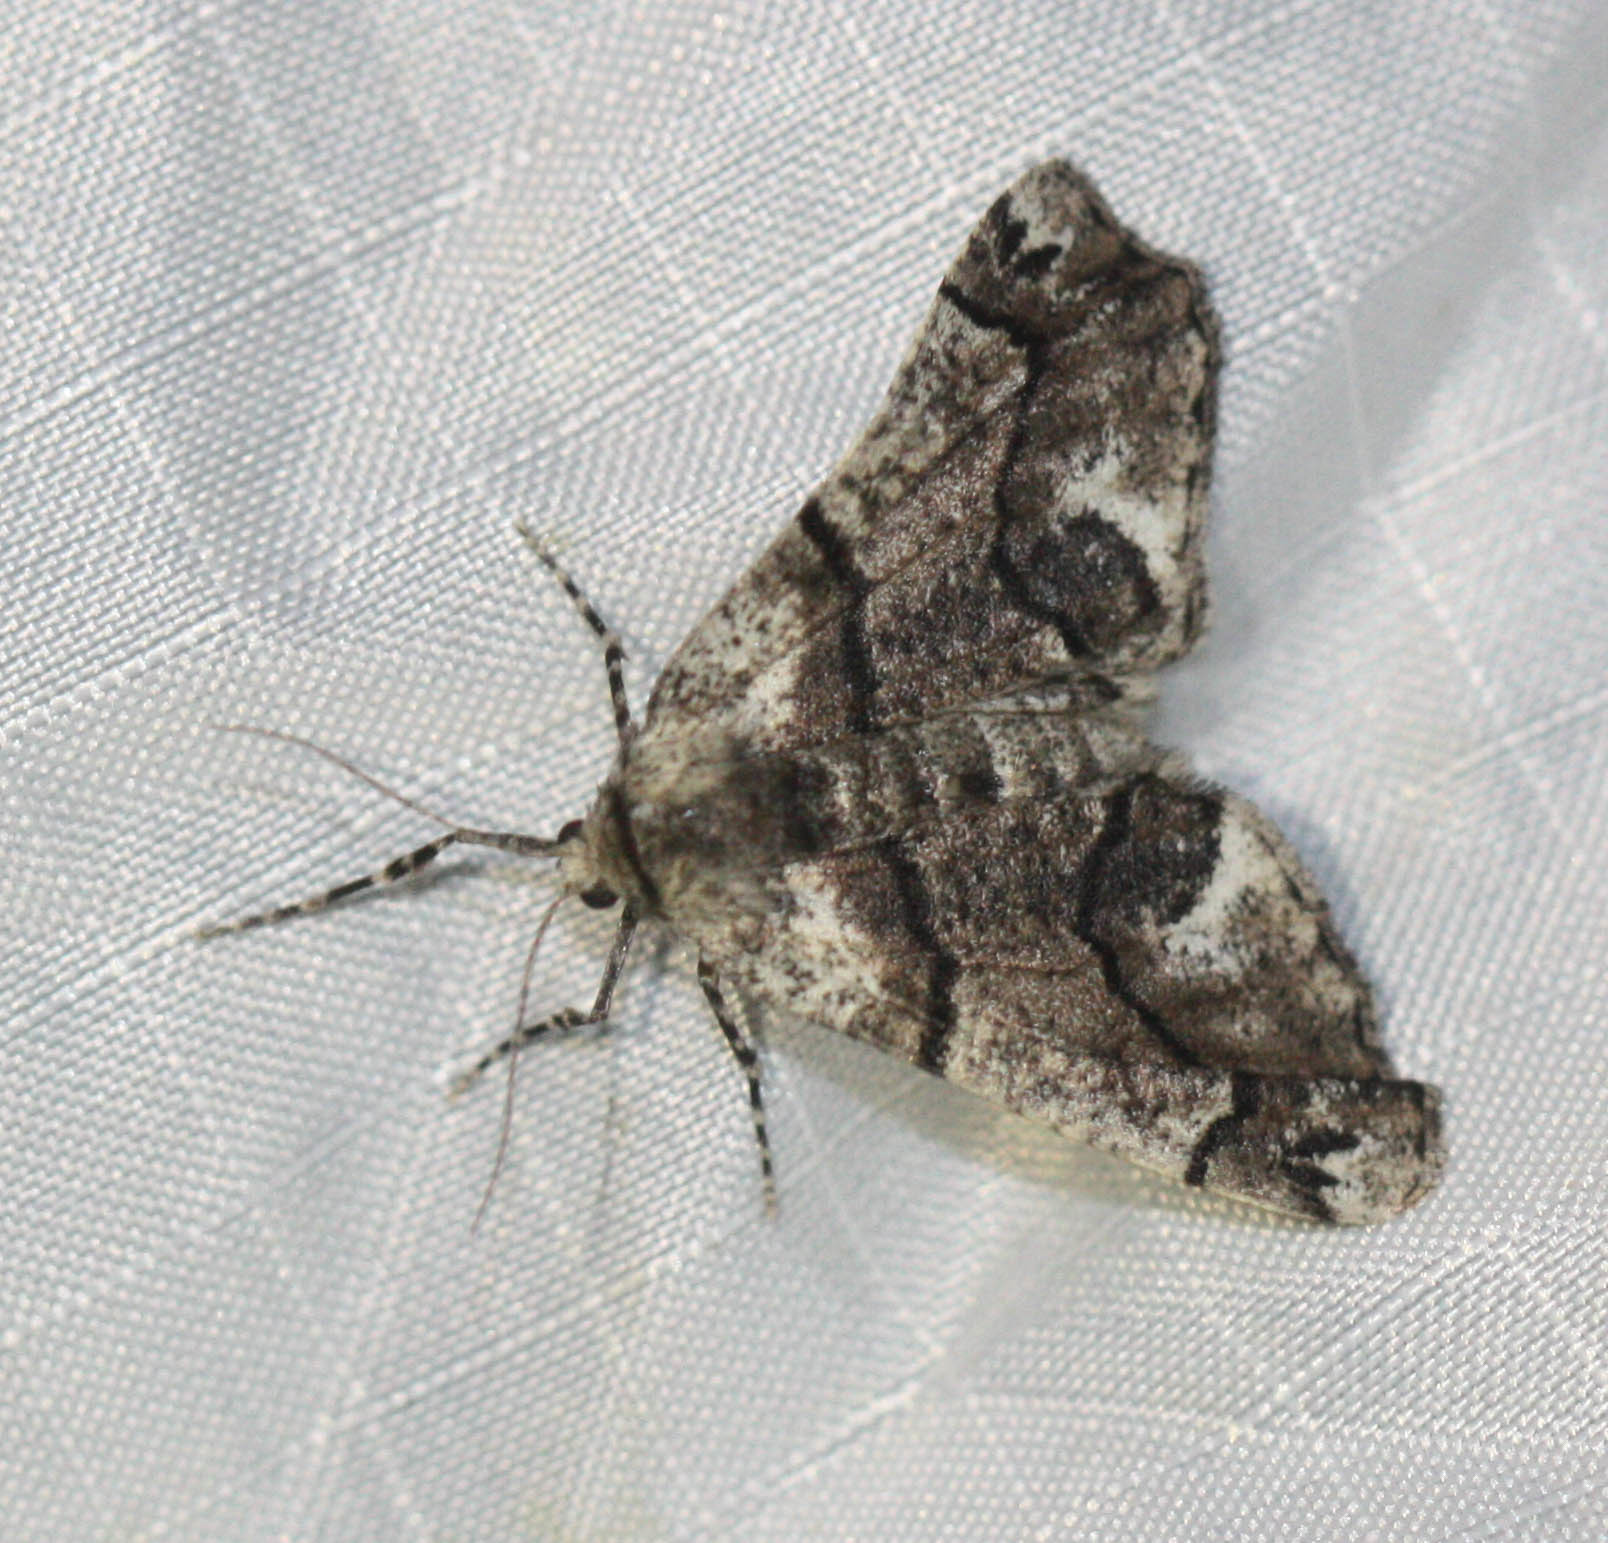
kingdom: Animalia
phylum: Arthropoda
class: Insecta
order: Lepidoptera
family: Geometridae
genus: Gabriola
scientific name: Gabriola dyari
